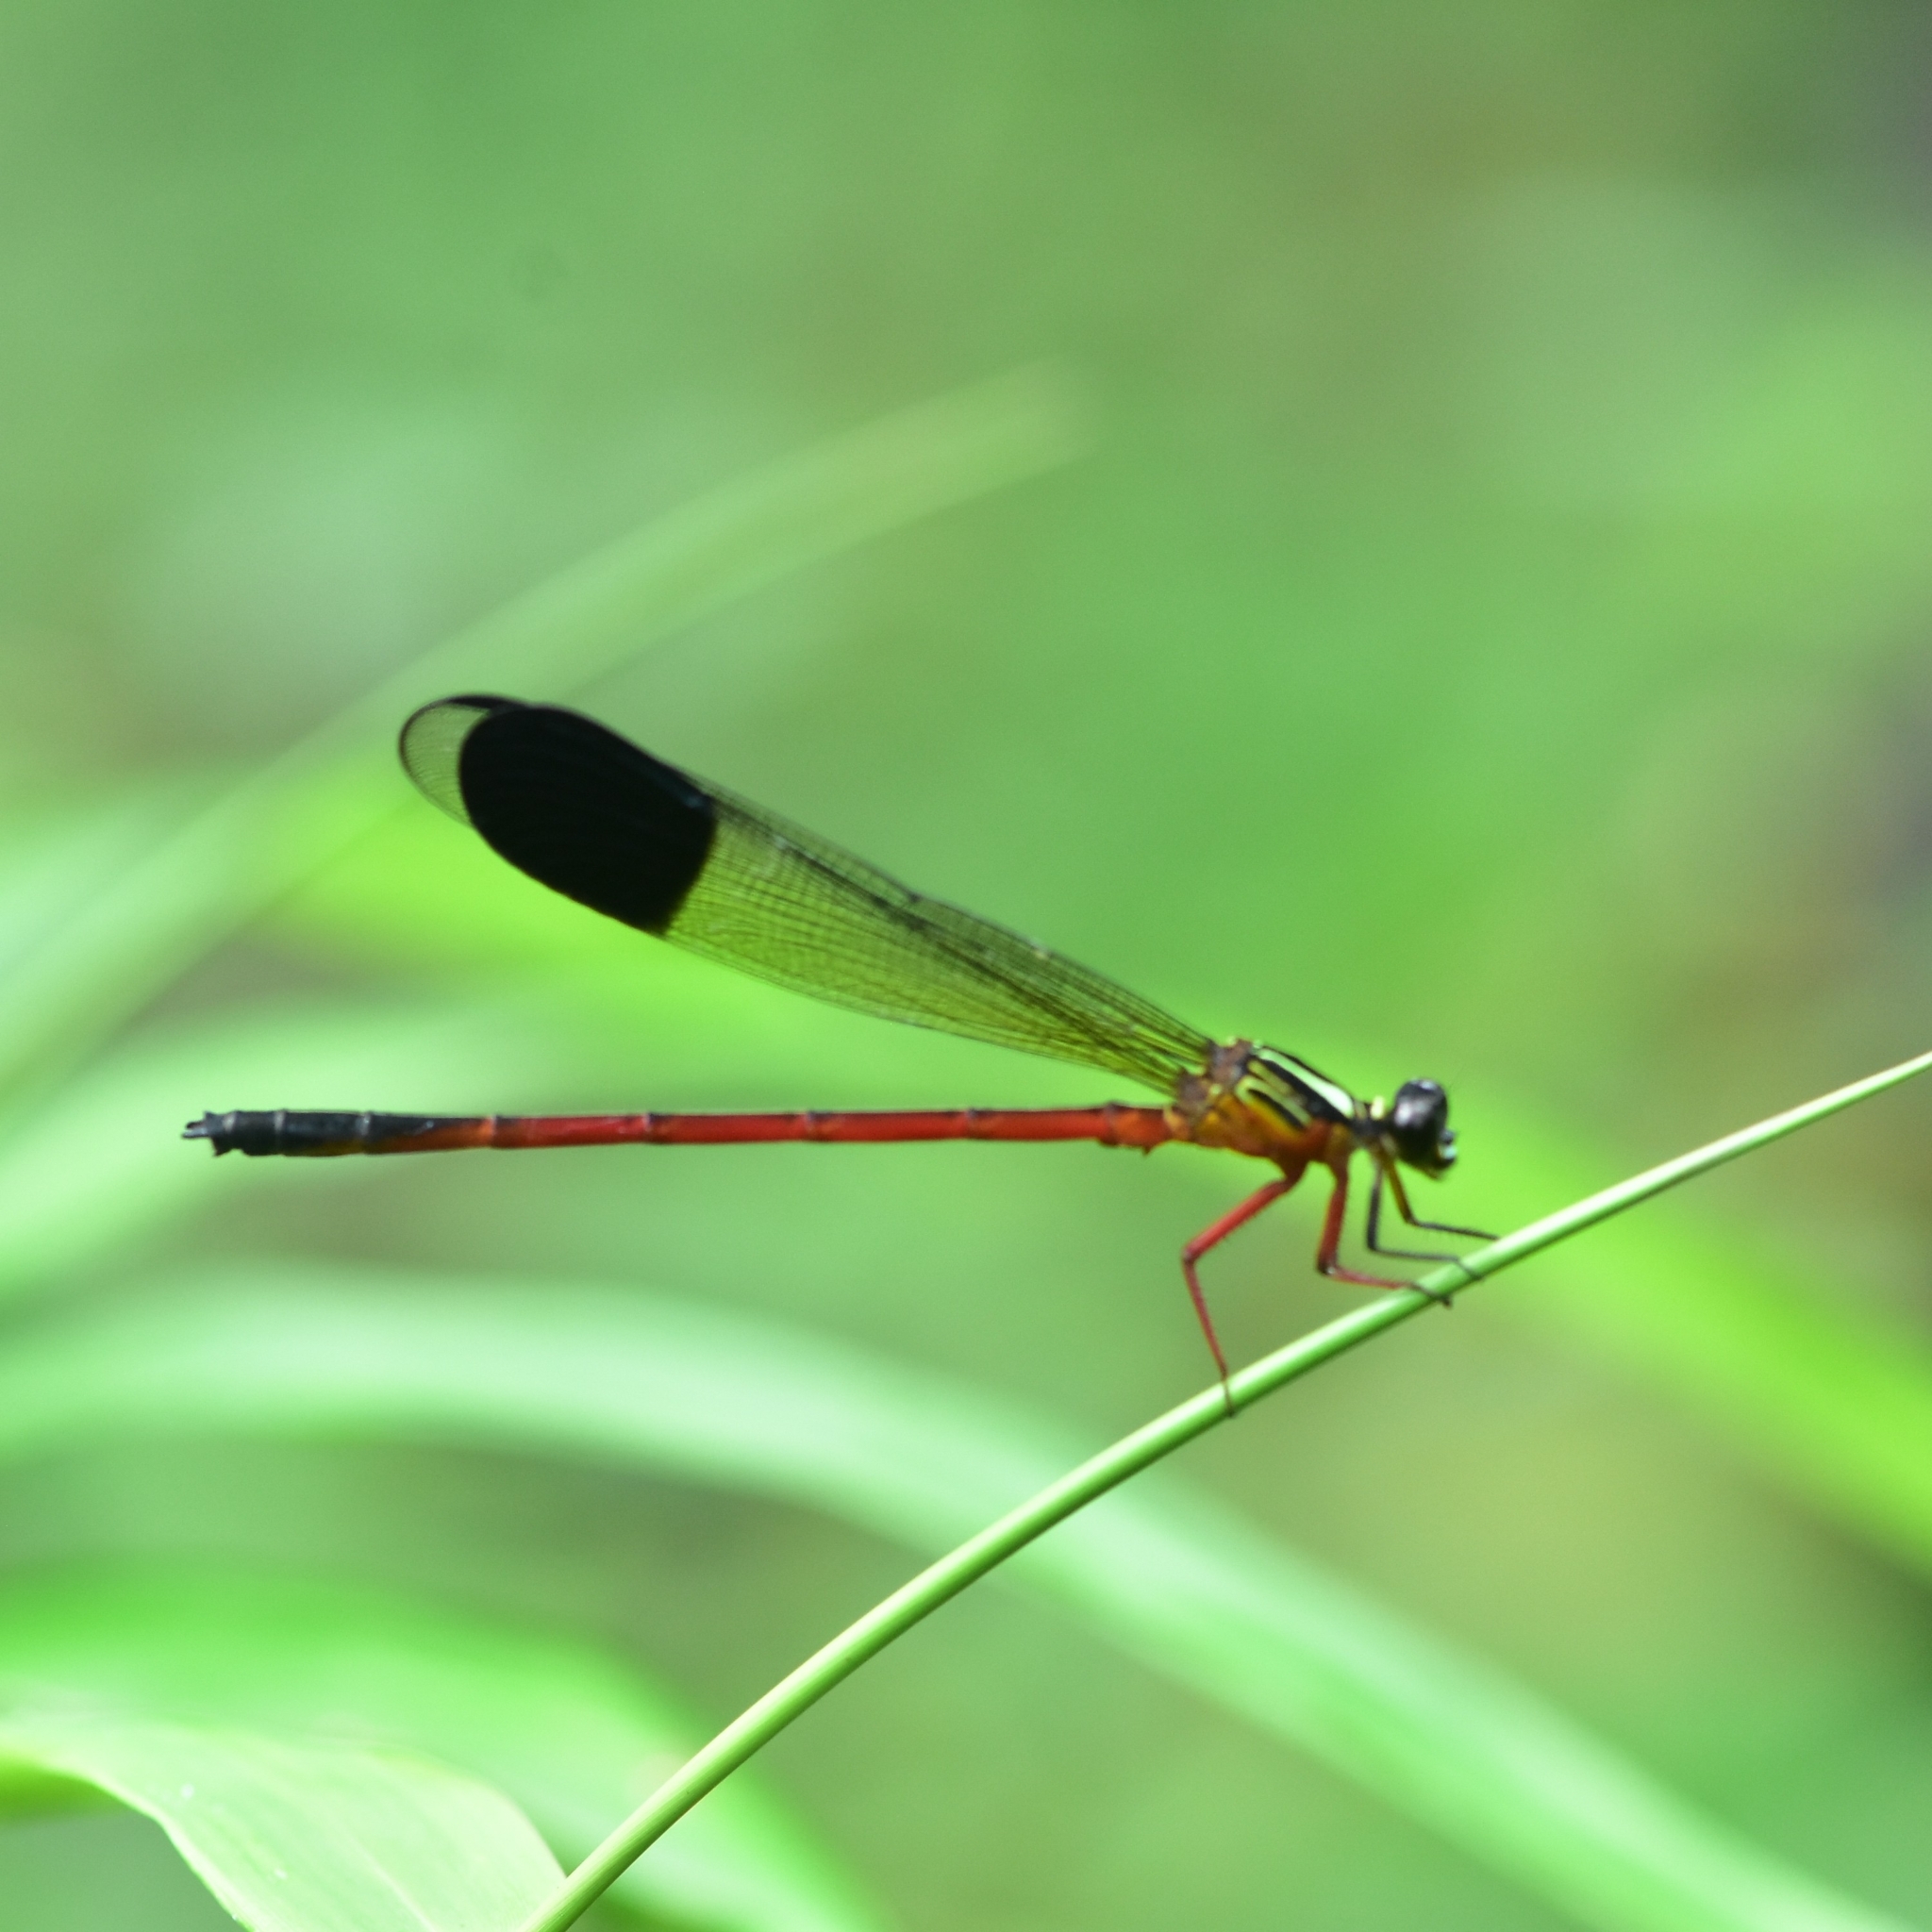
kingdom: Animalia
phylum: Arthropoda
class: Insecta
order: Odonata
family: Euphaeidae
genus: Euphaea
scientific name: Euphaea fraseri
